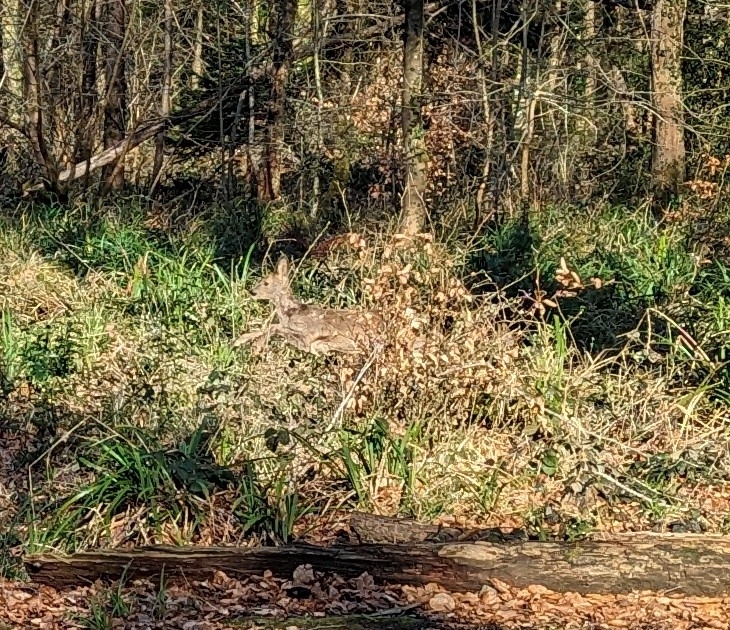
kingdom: Animalia
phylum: Chordata
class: Mammalia
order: Artiodactyla
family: Cervidae
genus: Capreolus
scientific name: Capreolus capreolus
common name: Western roe deer
